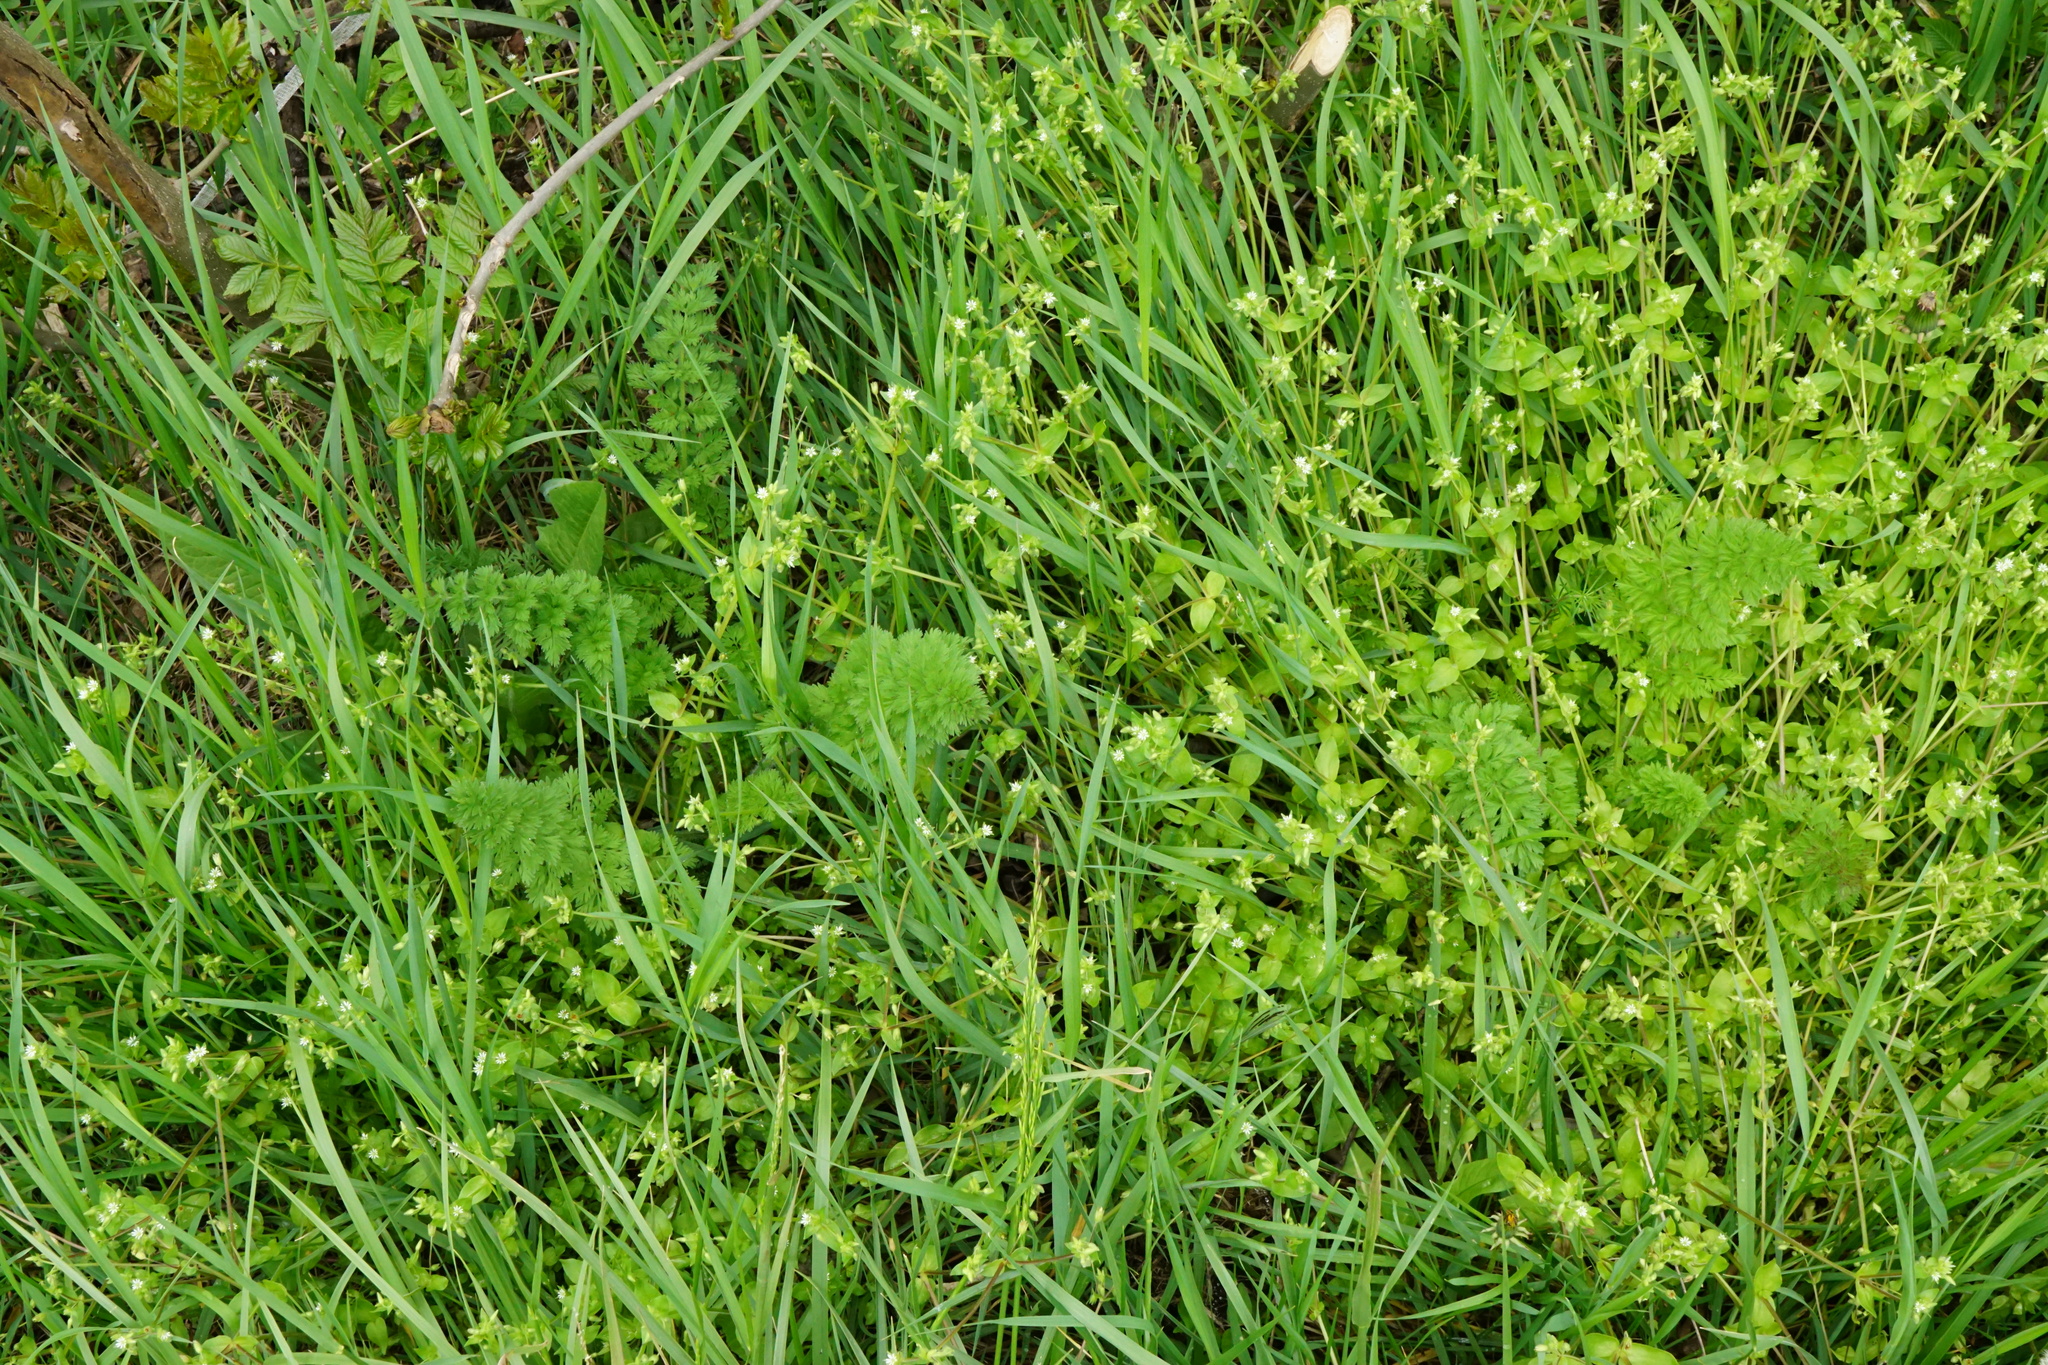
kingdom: Plantae
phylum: Tracheophyta
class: Magnoliopsida
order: Apiales
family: Apiaceae
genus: Daucus
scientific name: Daucus carota
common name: Wild carrot
